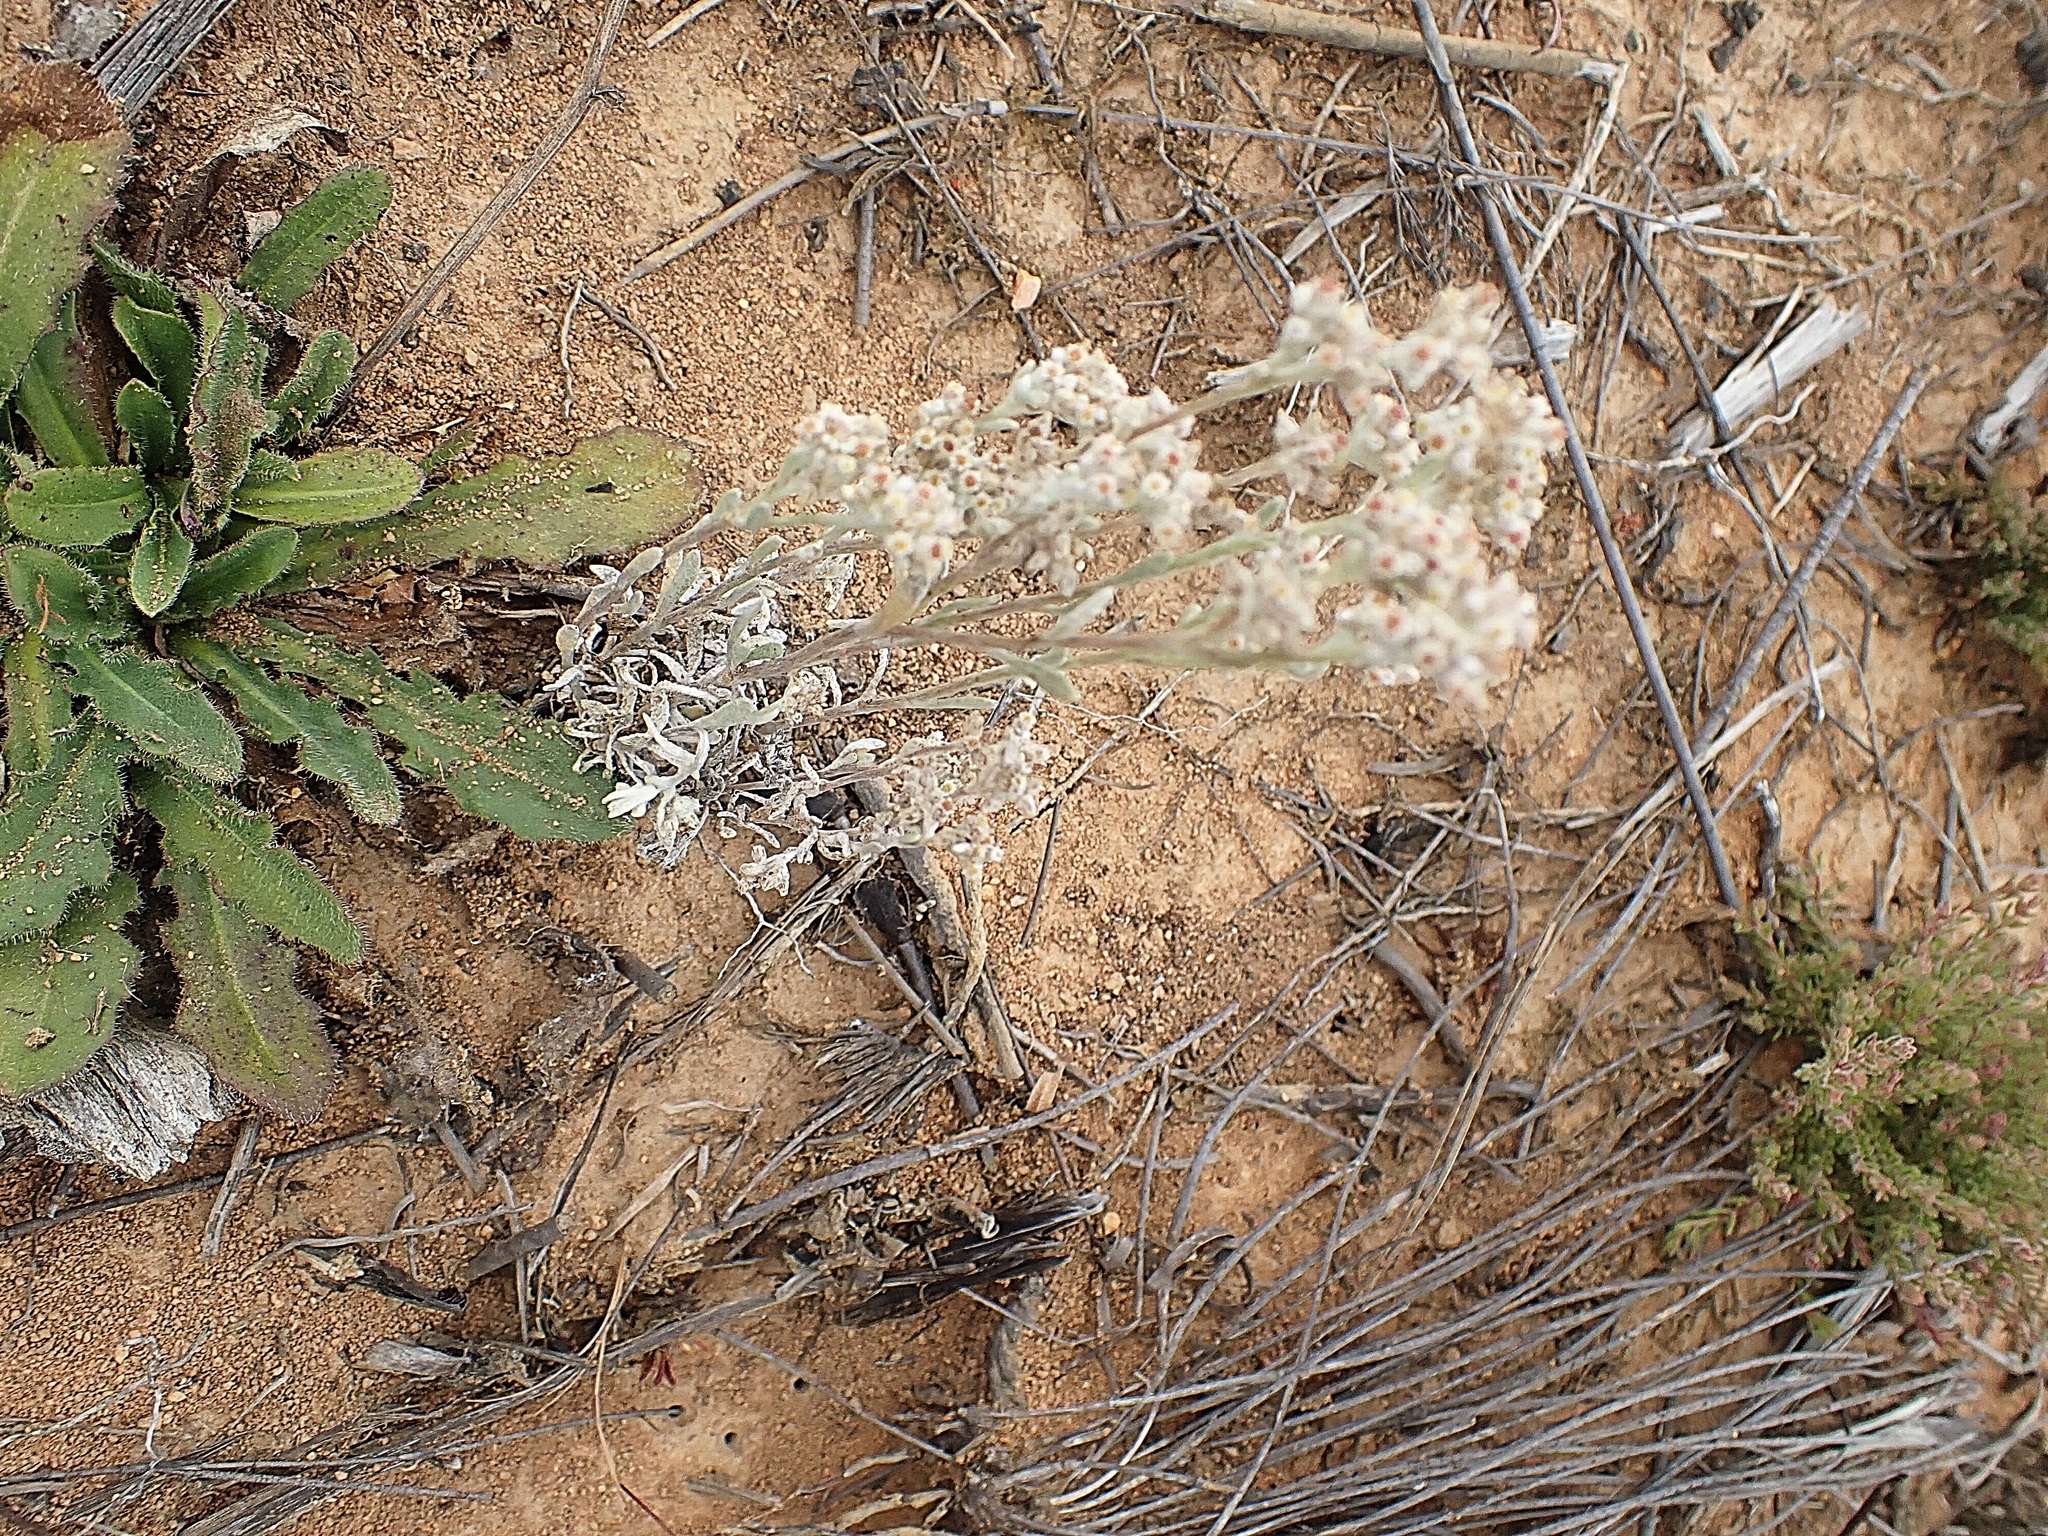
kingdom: Plantae
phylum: Tracheophyta
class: Magnoliopsida
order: Asterales
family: Asteraceae
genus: Vellereophyton
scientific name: Vellereophyton dealbatum
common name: White-cudweed
